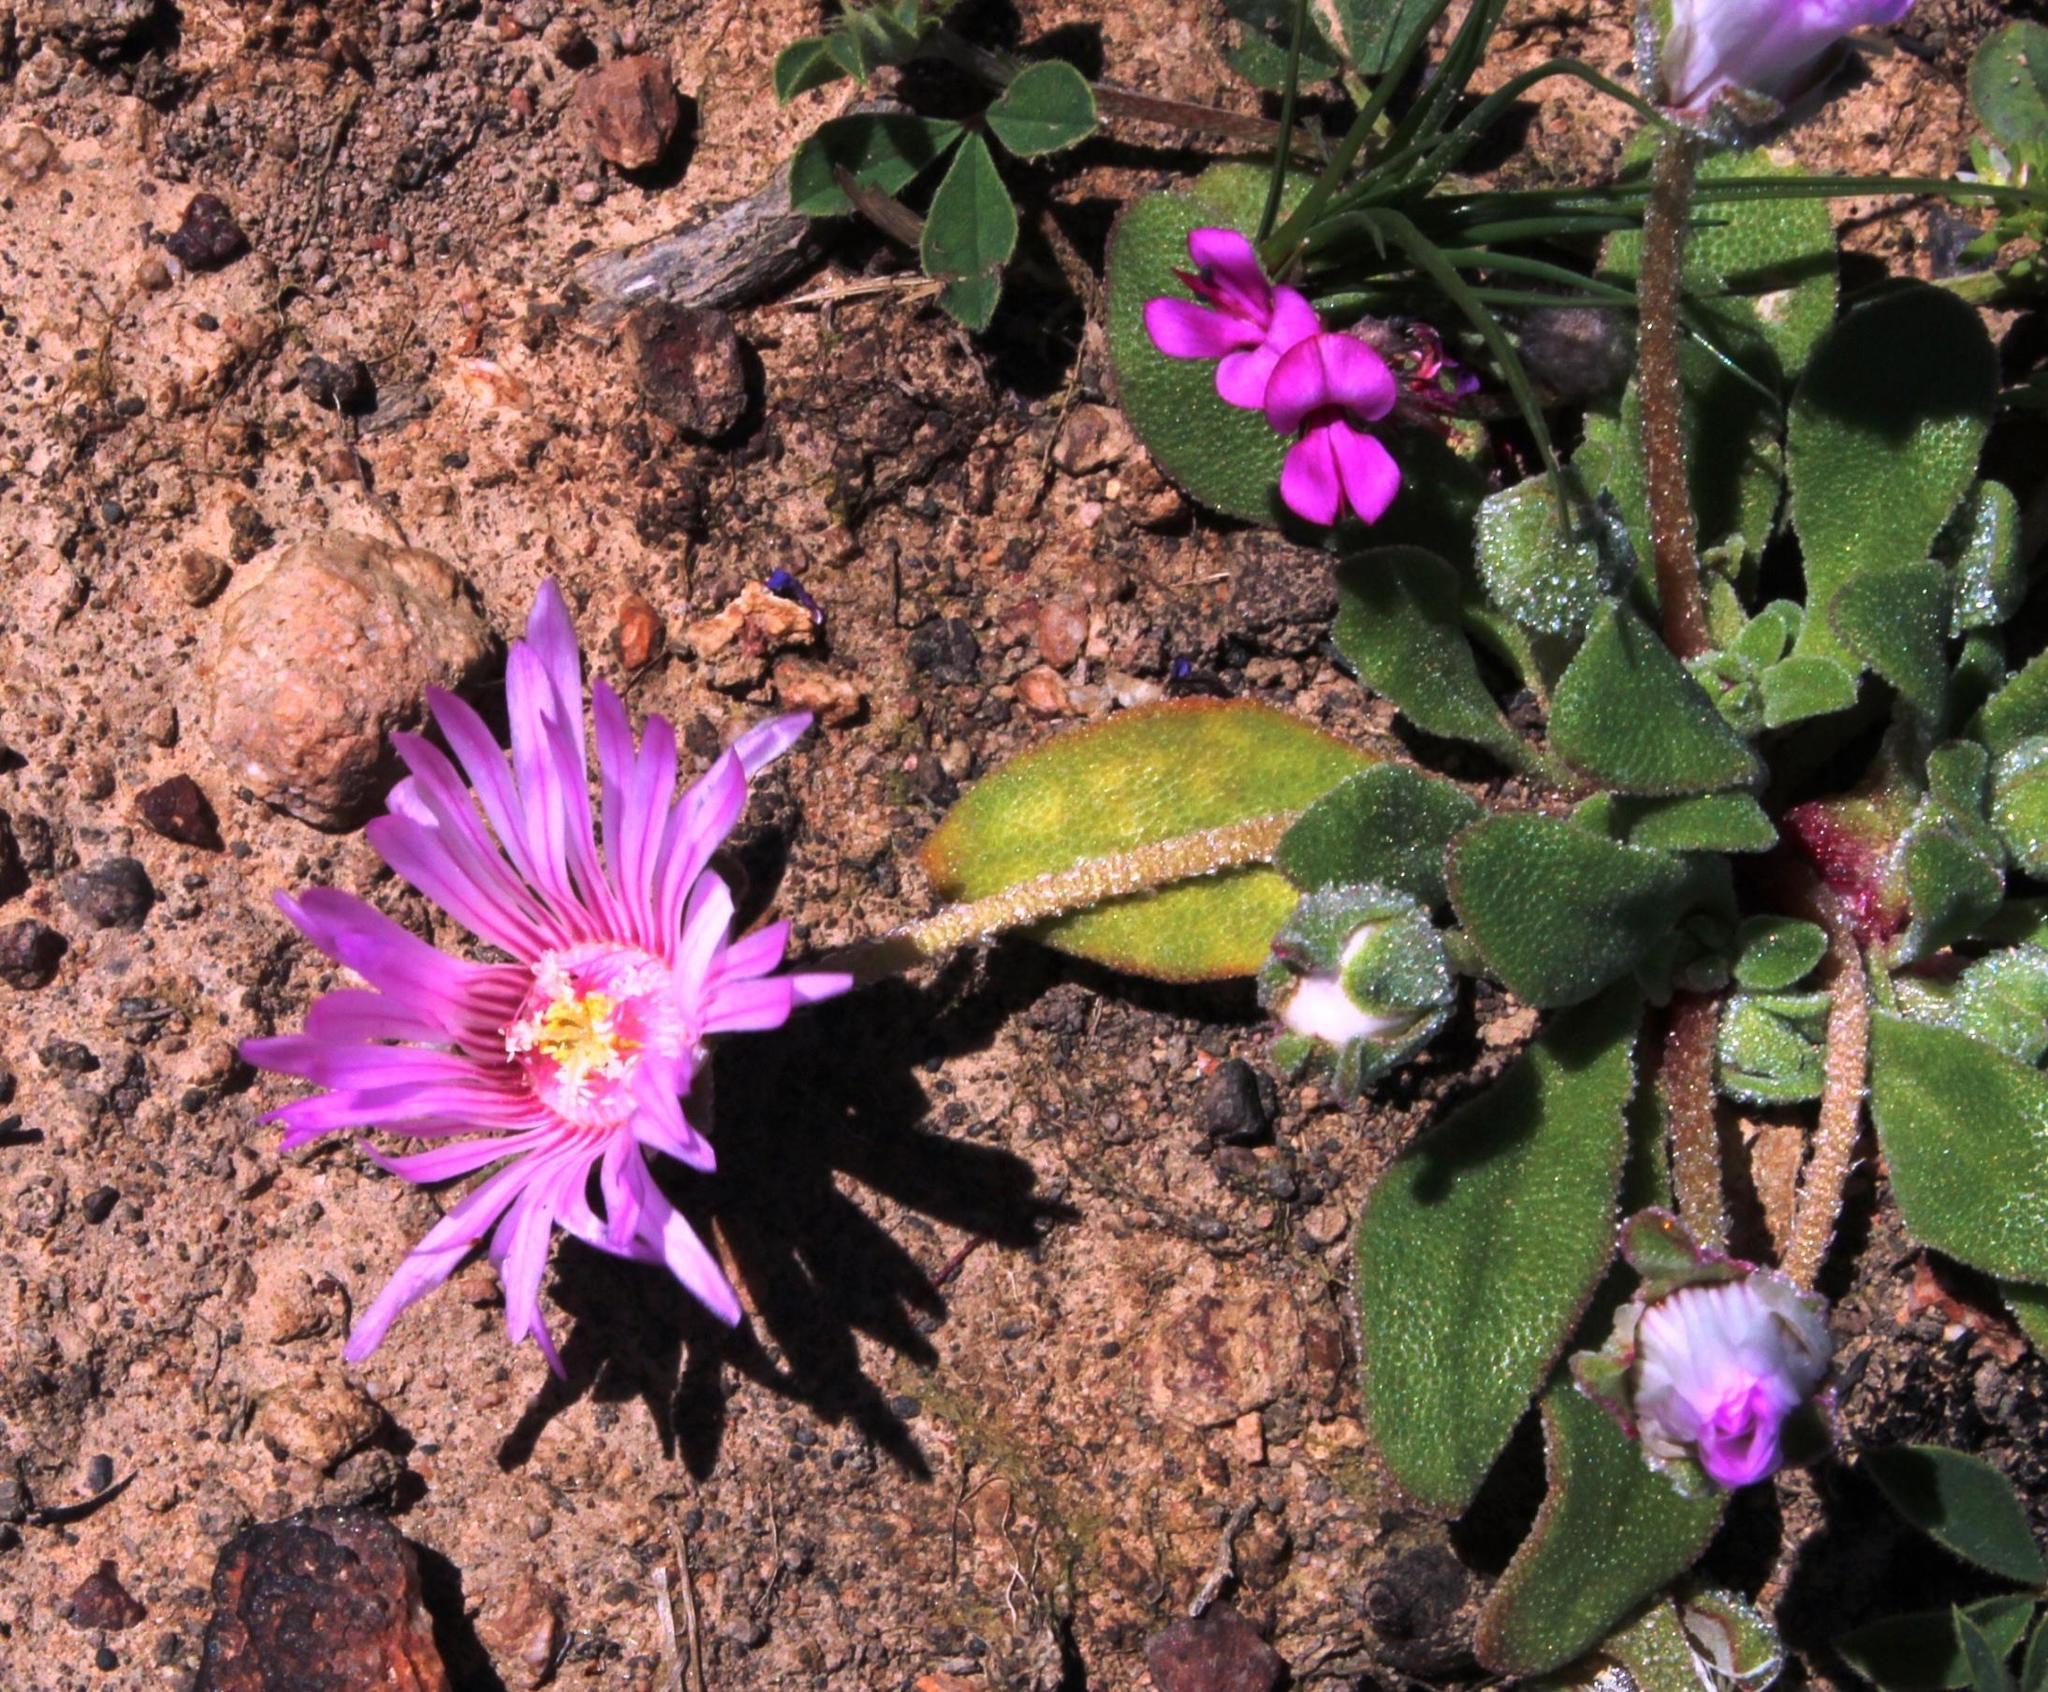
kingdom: Plantae
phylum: Tracheophyta
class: Magnoliopsida
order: Caryophyllales
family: Aizoaceae
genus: Cleretum
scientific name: Cleretum bellidiforme
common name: Livingstone daisy
